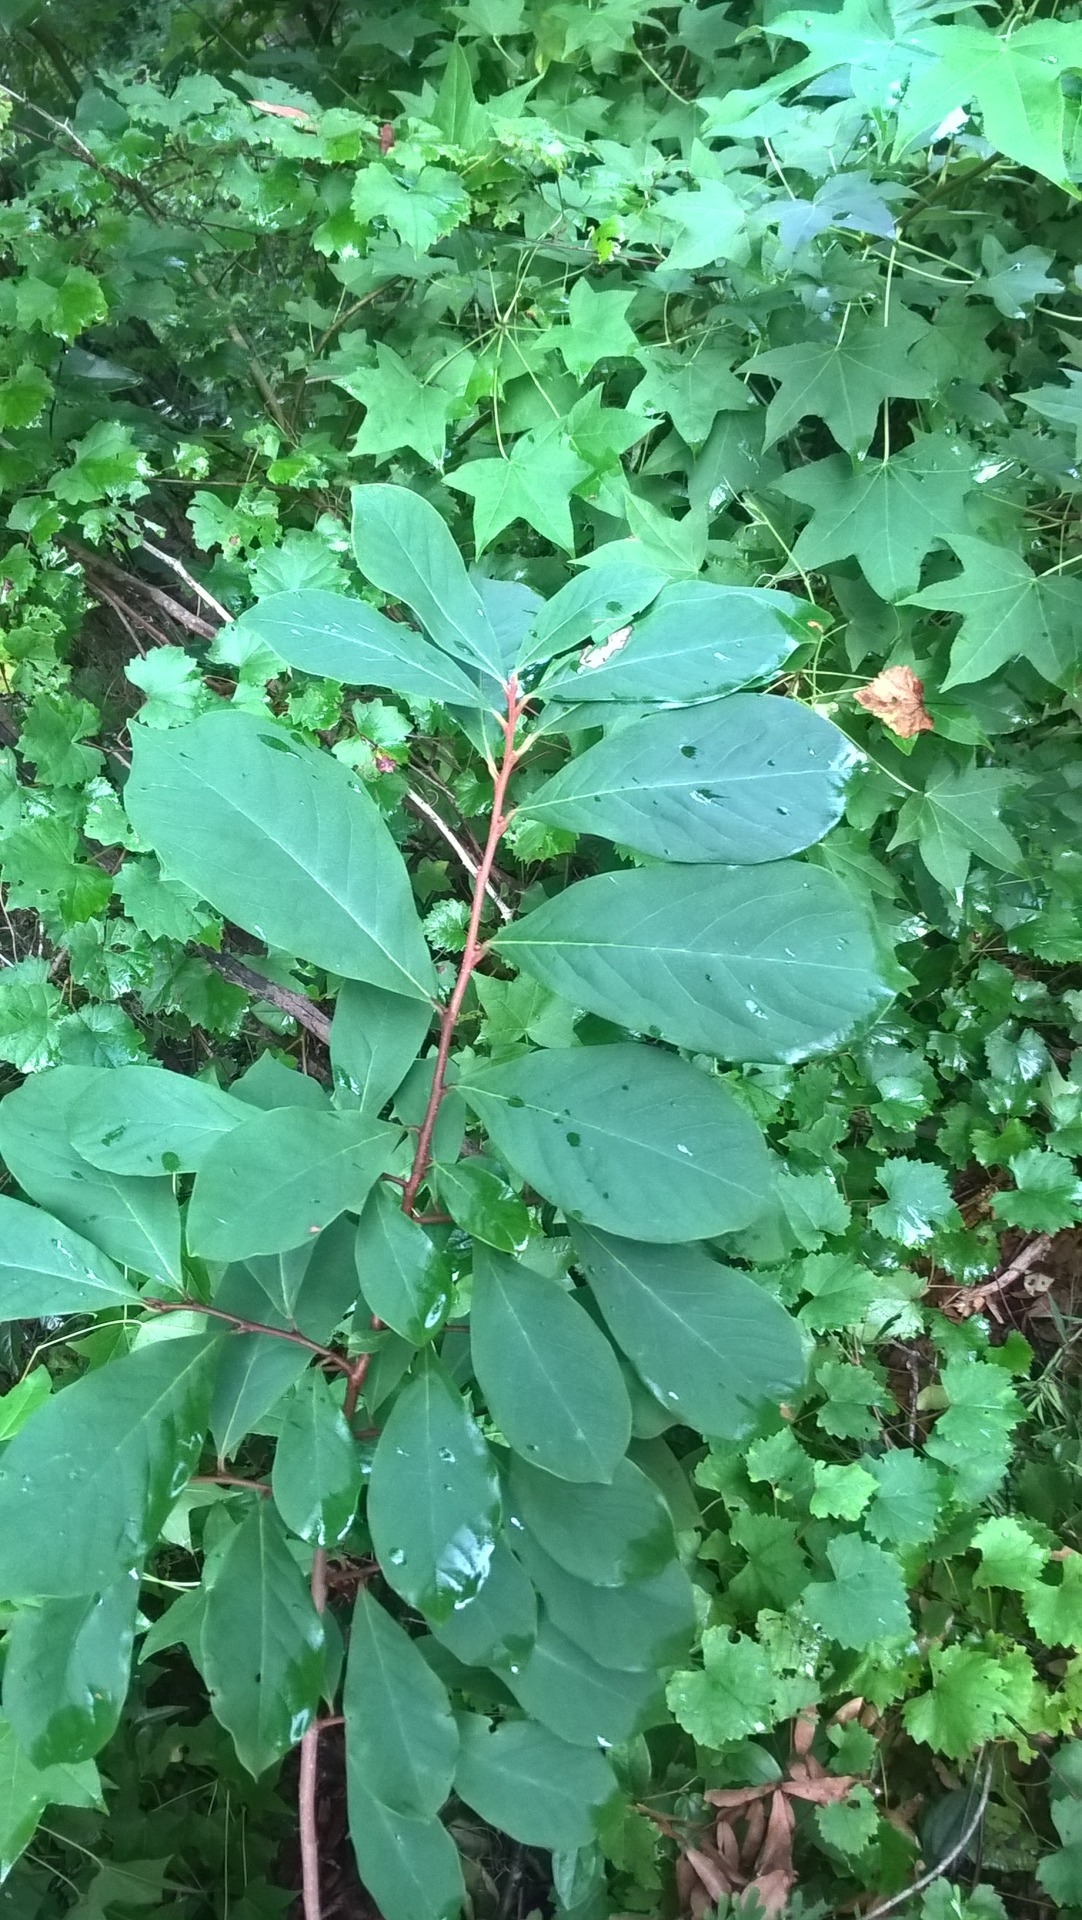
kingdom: Plantae
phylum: Tracheophyta
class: Magnoliopsida
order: Magnoliales
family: Annonaceae
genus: Asimina
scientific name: Asimina parviflora
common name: Dwarf pawpaw
